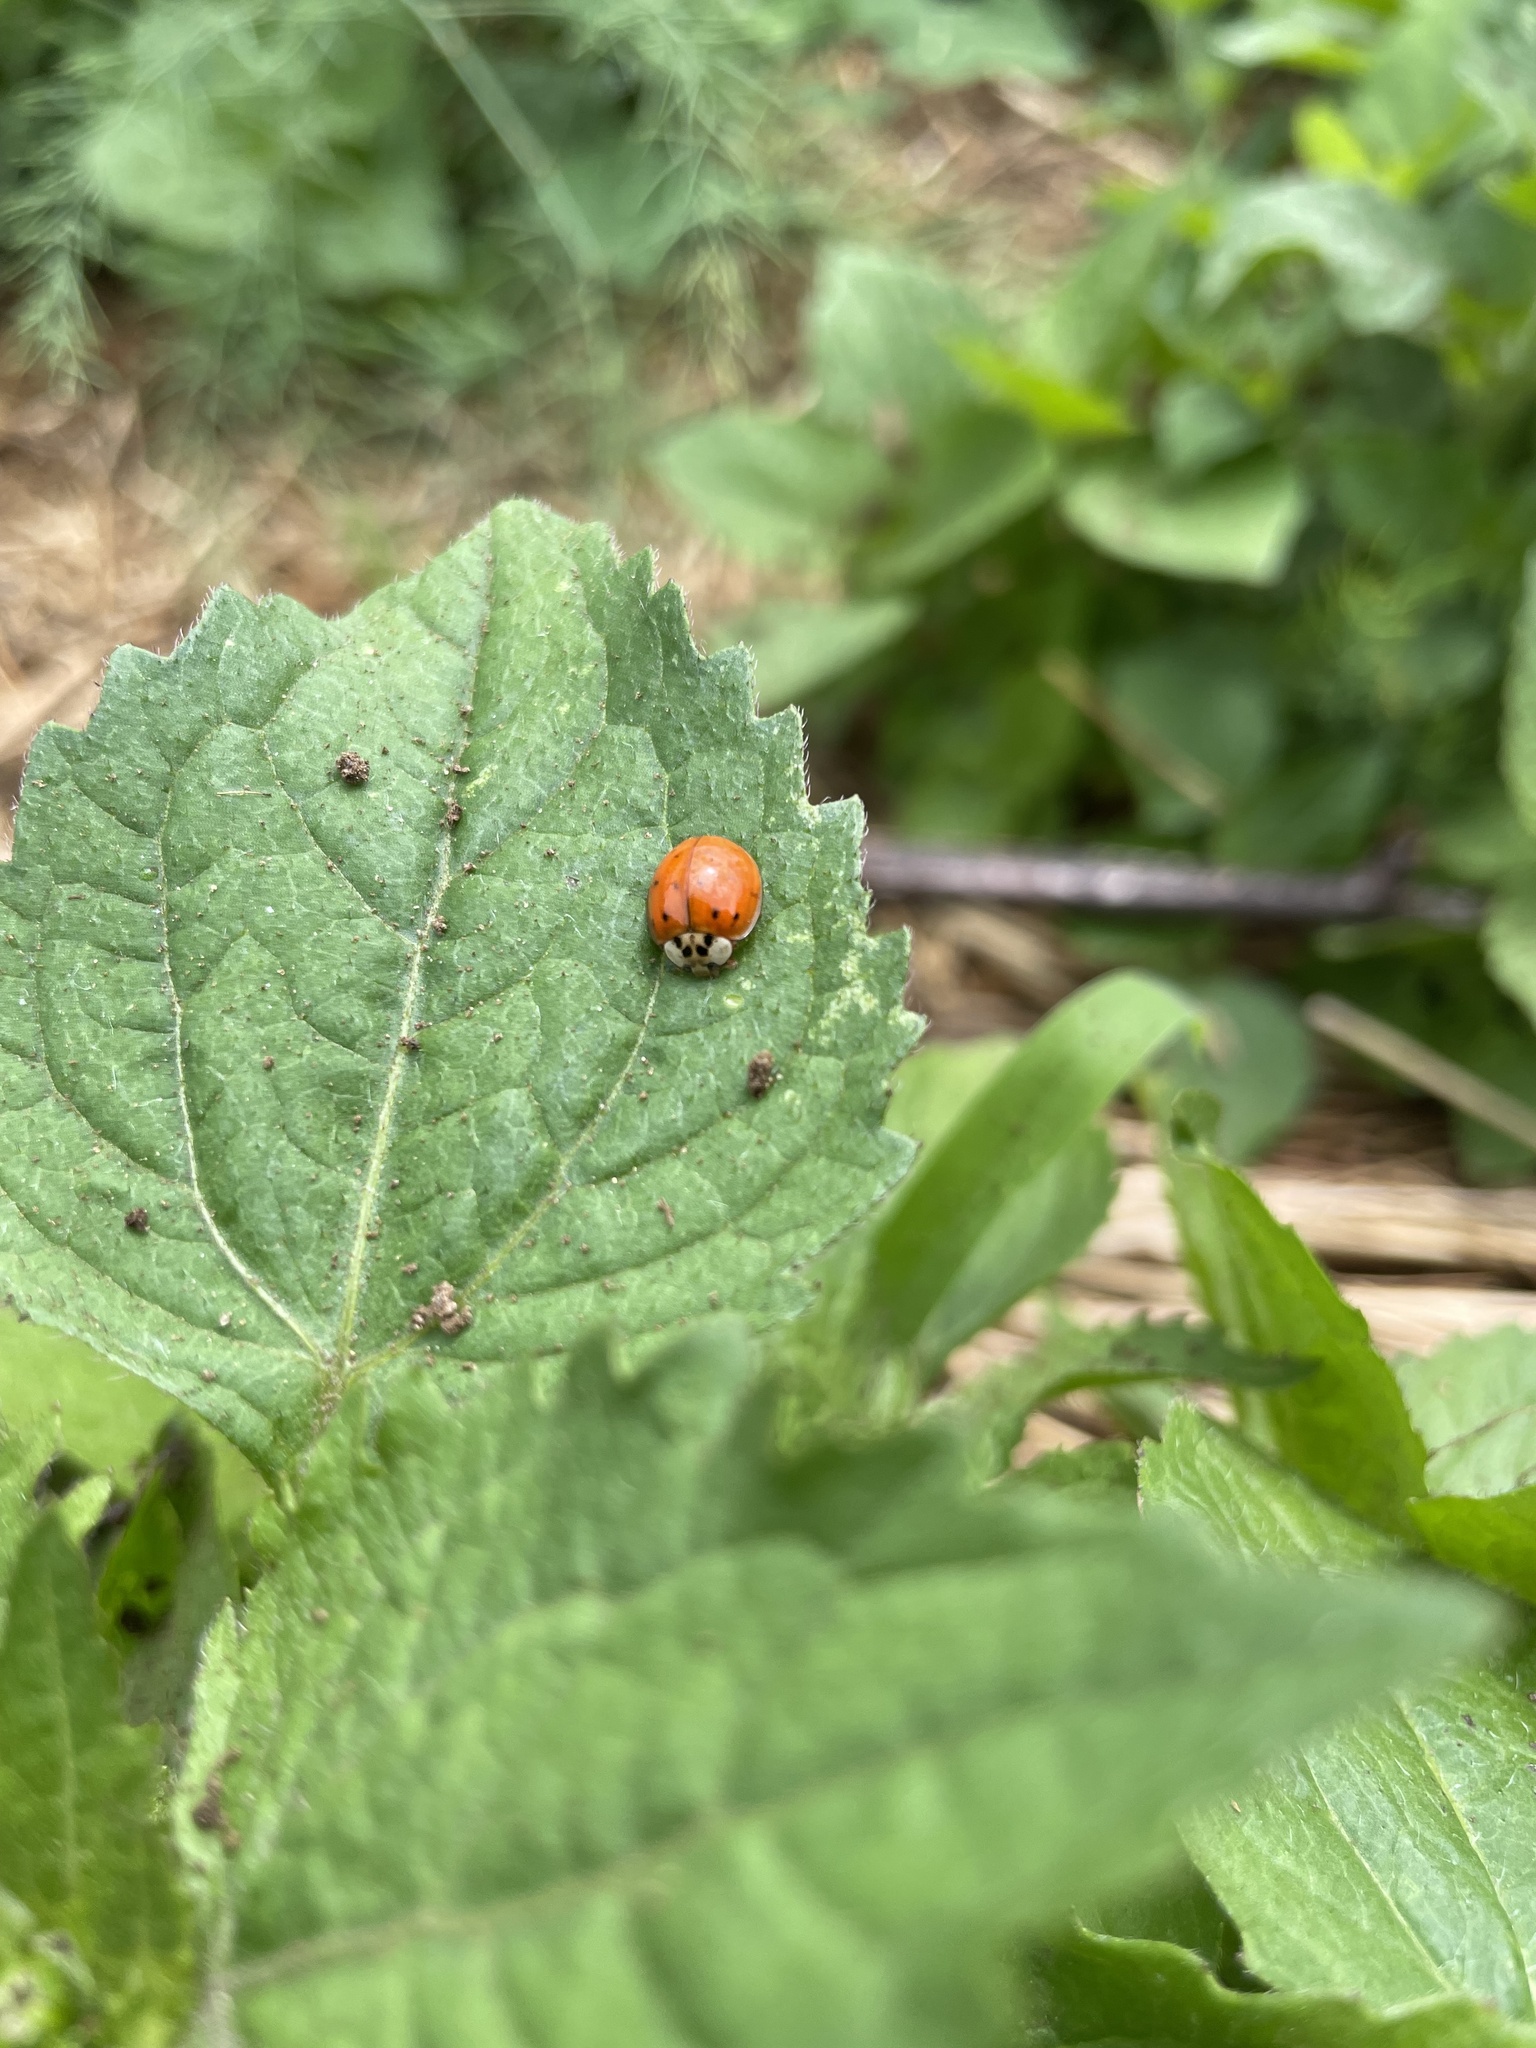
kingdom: Animalia
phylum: Arthropoda
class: Insecta
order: Coleoptera
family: Coccinellidae
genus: Harmonia
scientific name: Harmonia axyridis
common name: Harlequin ladybird
